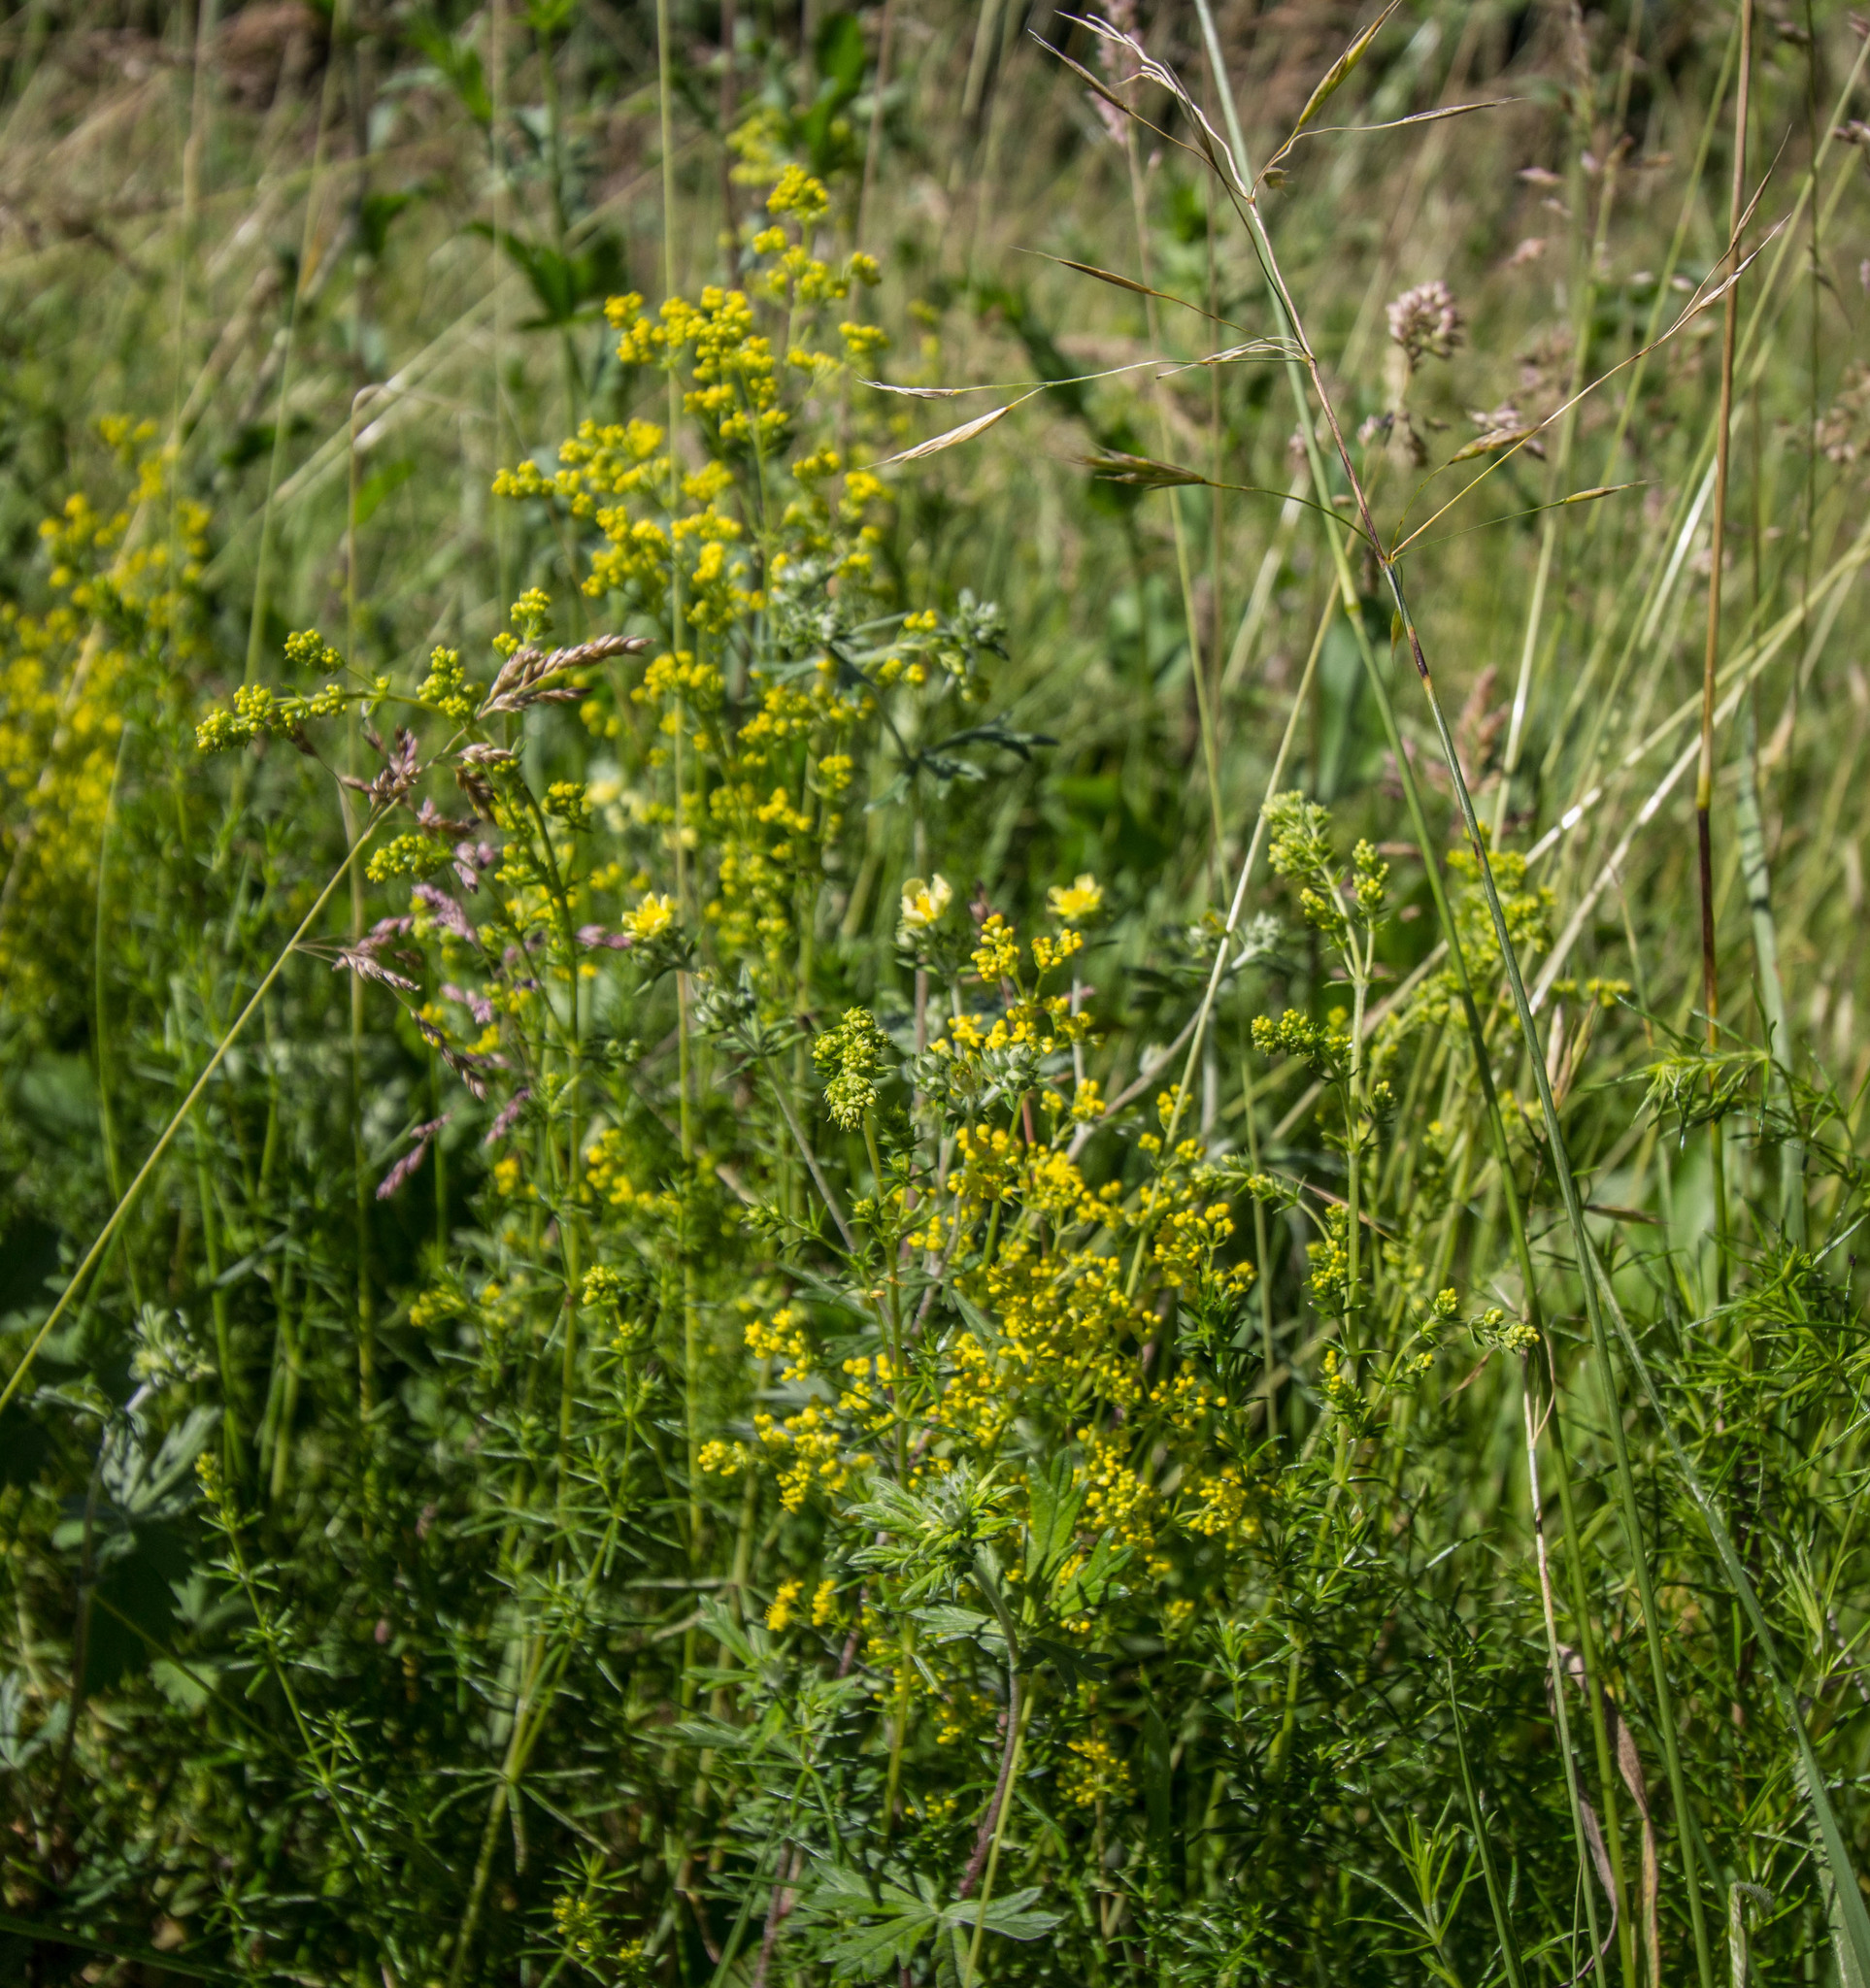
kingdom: Plantae
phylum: Tracheophyta
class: Magnoliopsida
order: Gentianales
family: Rubiaceae
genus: Galium
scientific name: Galium verum
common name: Lady's bedstraw
